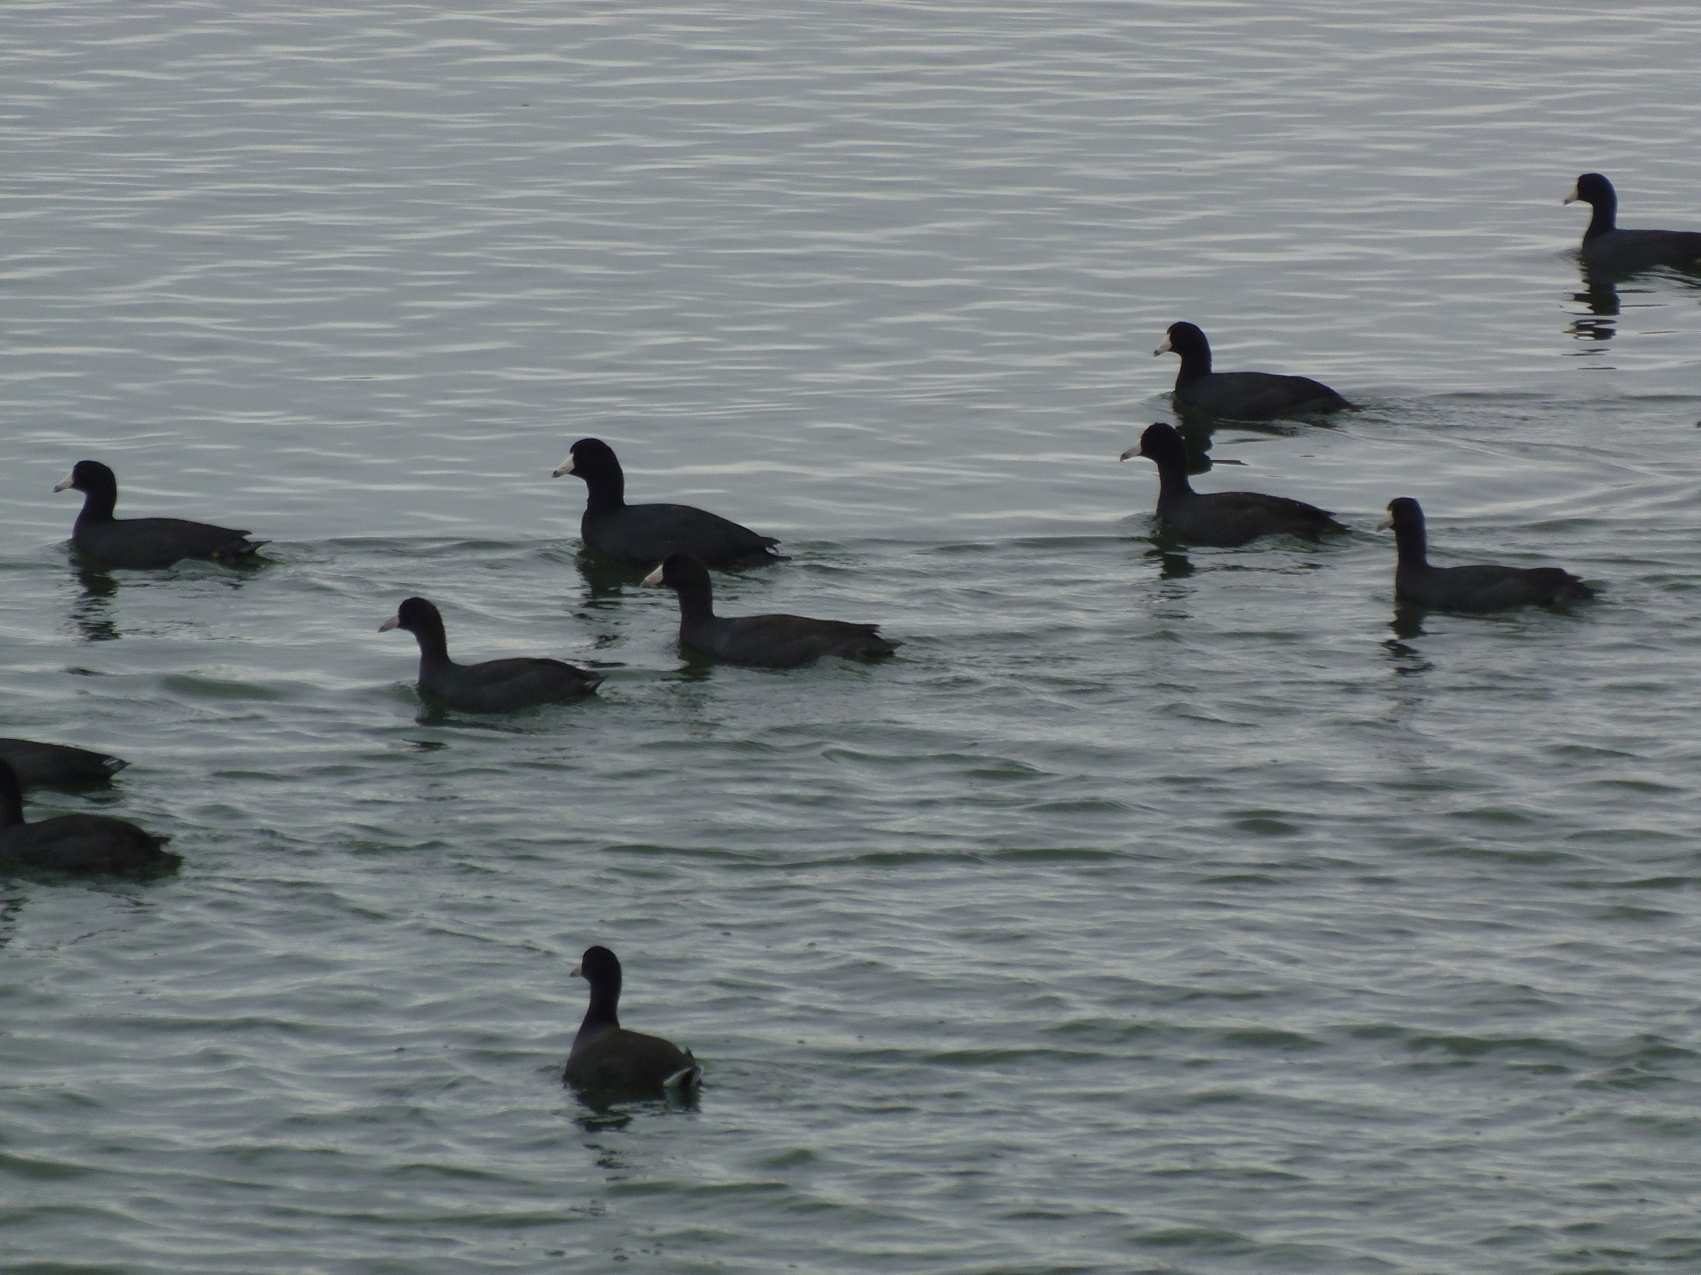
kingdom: Animalia
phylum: Chordata
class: Aves
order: Gruiformes
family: Rallidae
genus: Fulica
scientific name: Fulica americana
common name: American coot
